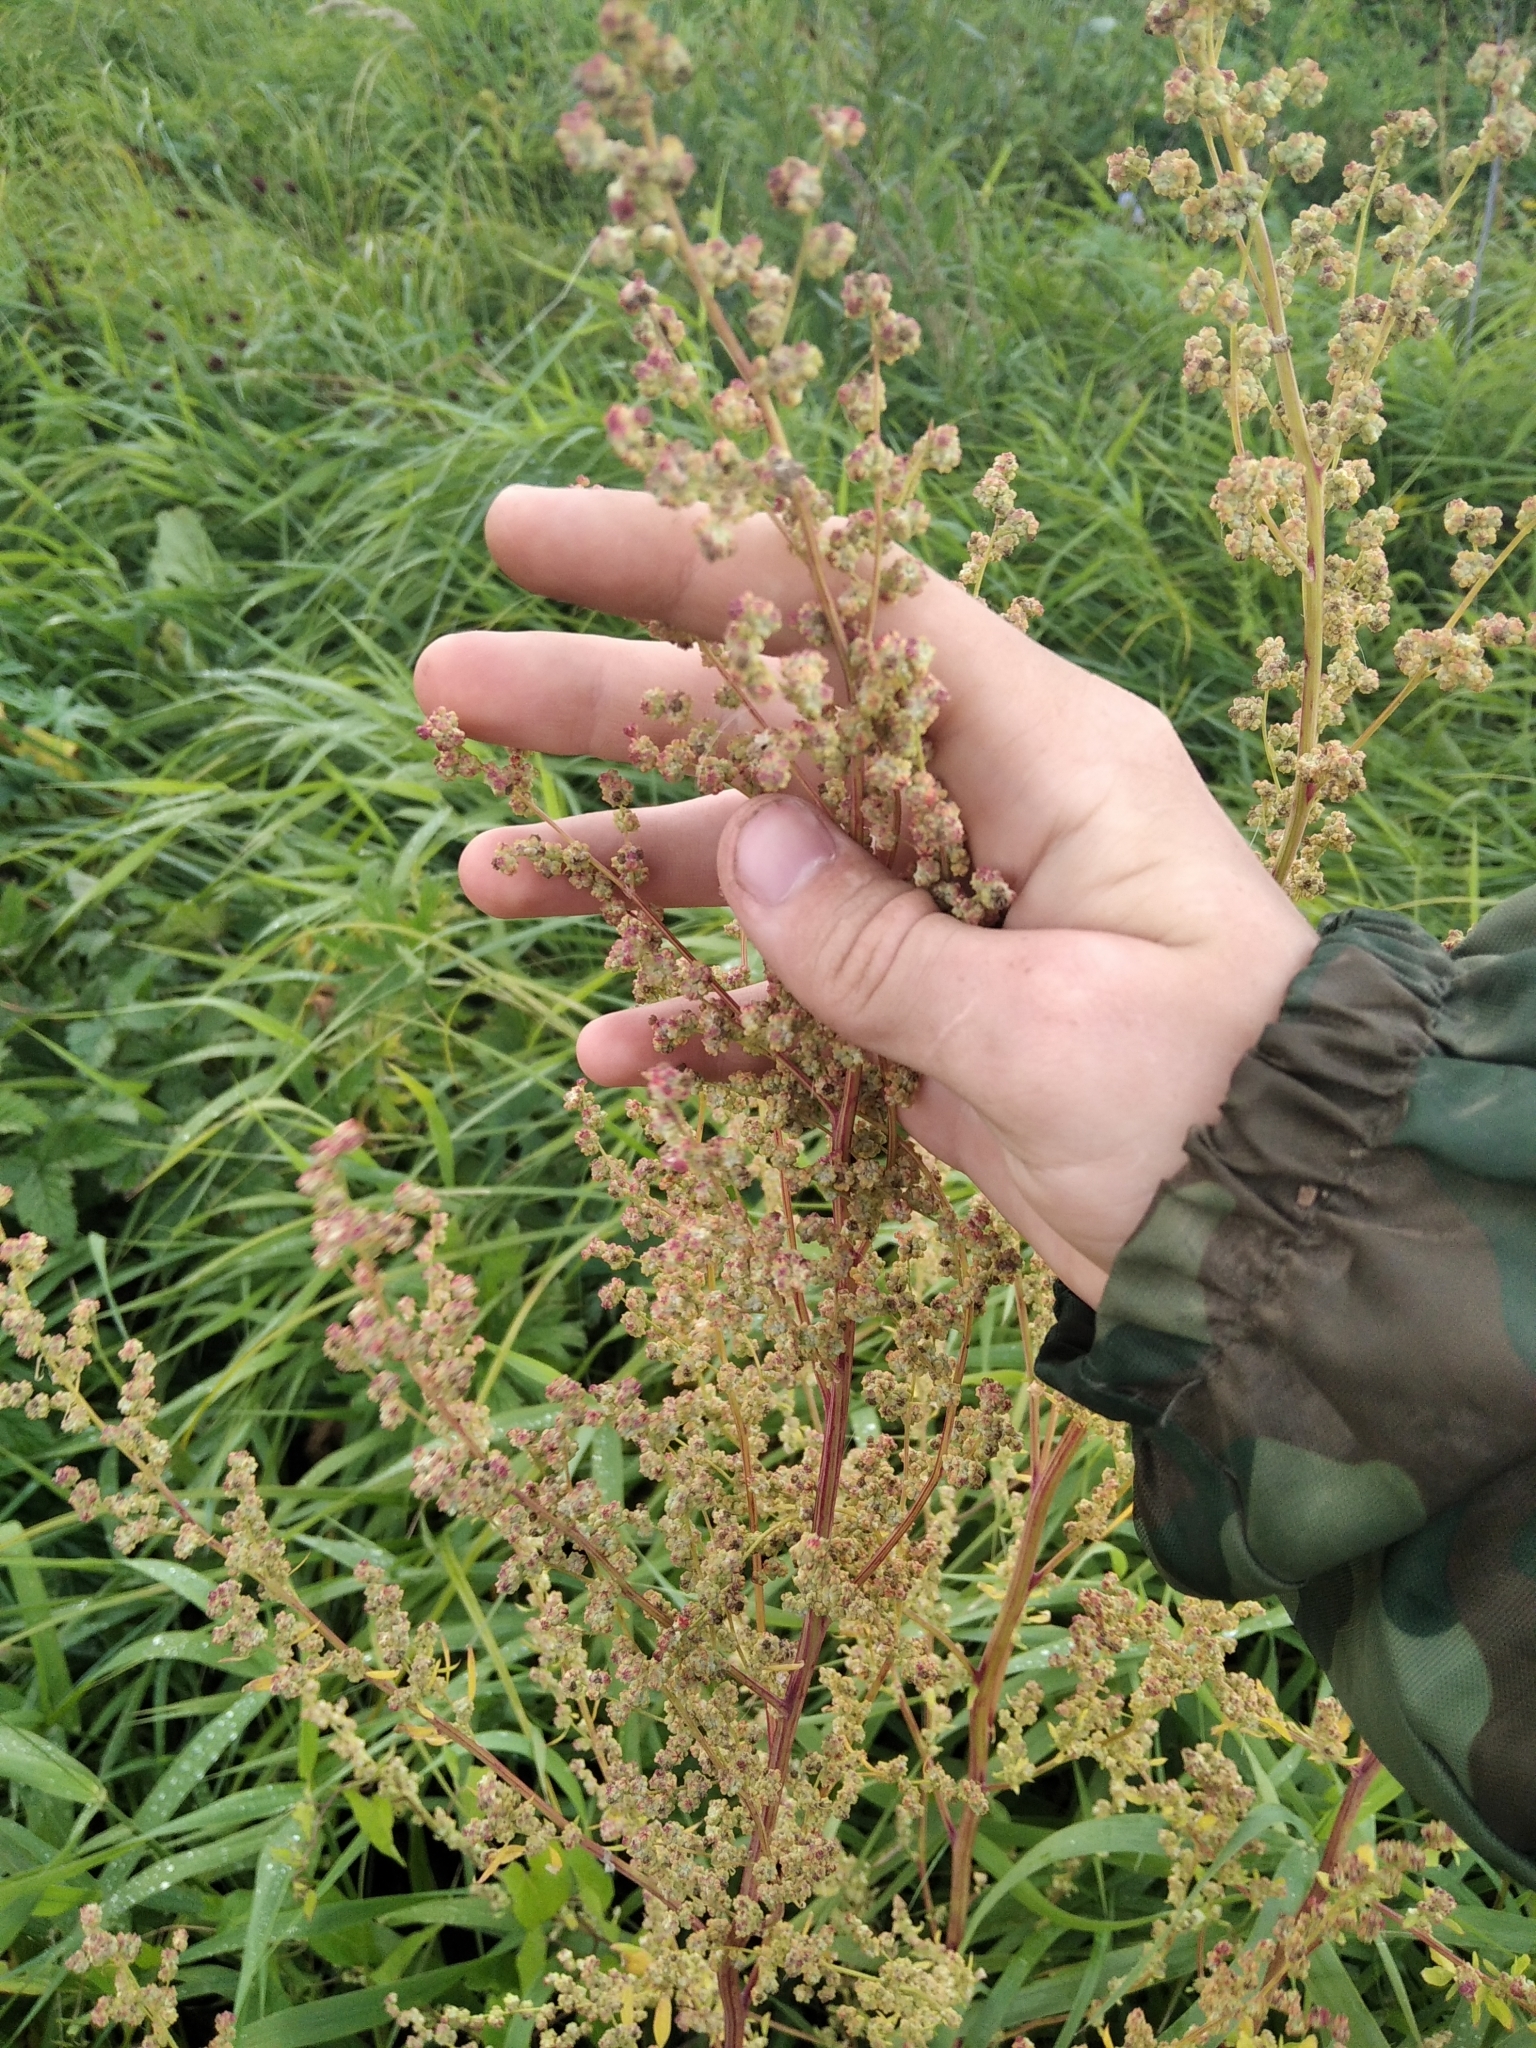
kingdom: Plantae
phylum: Tracheophyta
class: Magnoliopsida
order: Caryophyllales
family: Amaranthaceae
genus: Chenopodium
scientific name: Chenopodium album
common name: Fat-hen
